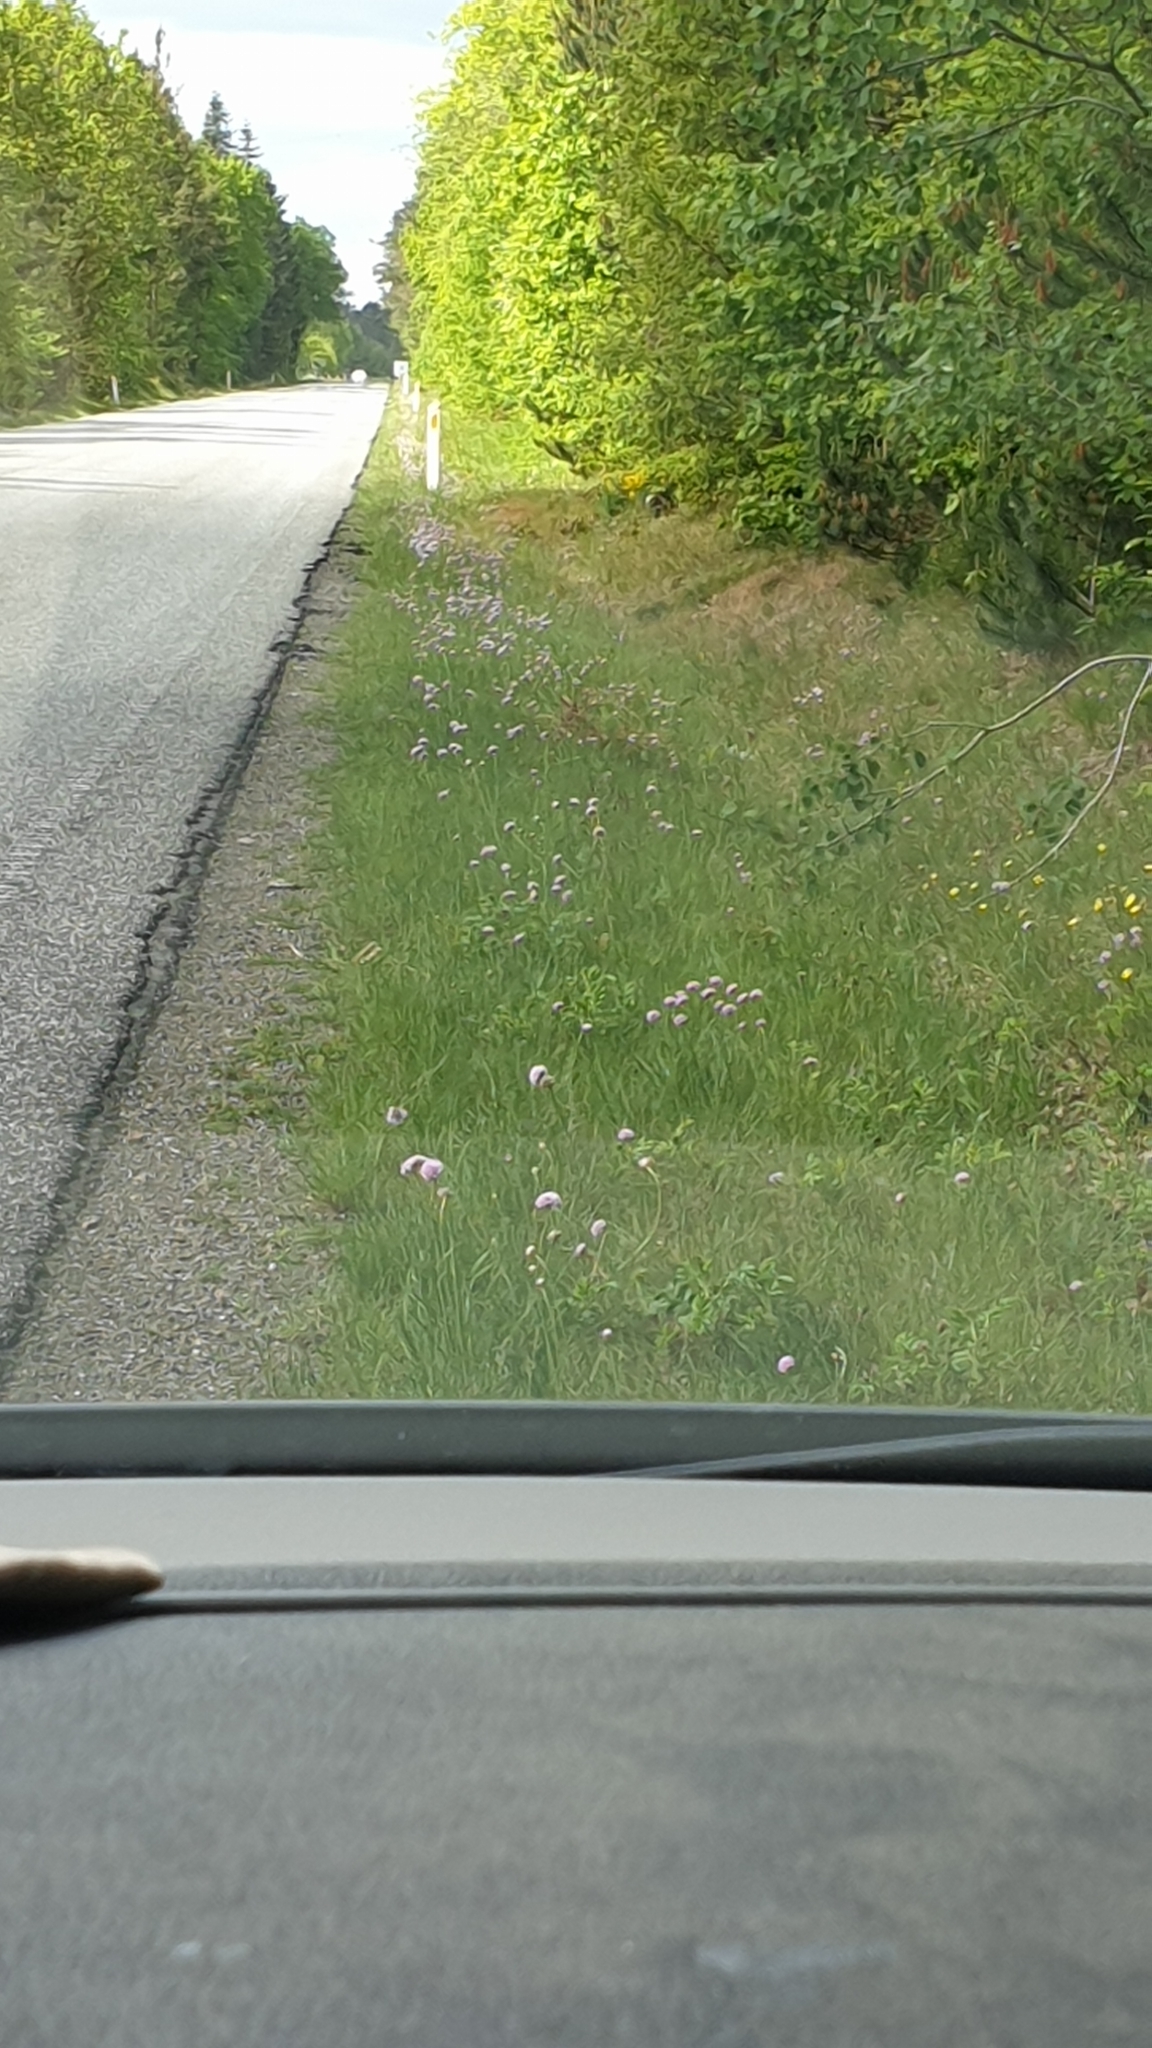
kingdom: Plantae
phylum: Tracheophyta
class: Magnoliopsida
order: Caryophyllales
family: Plumbaginaceae
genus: Armeria
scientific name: Armeria maritima
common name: Thrift
